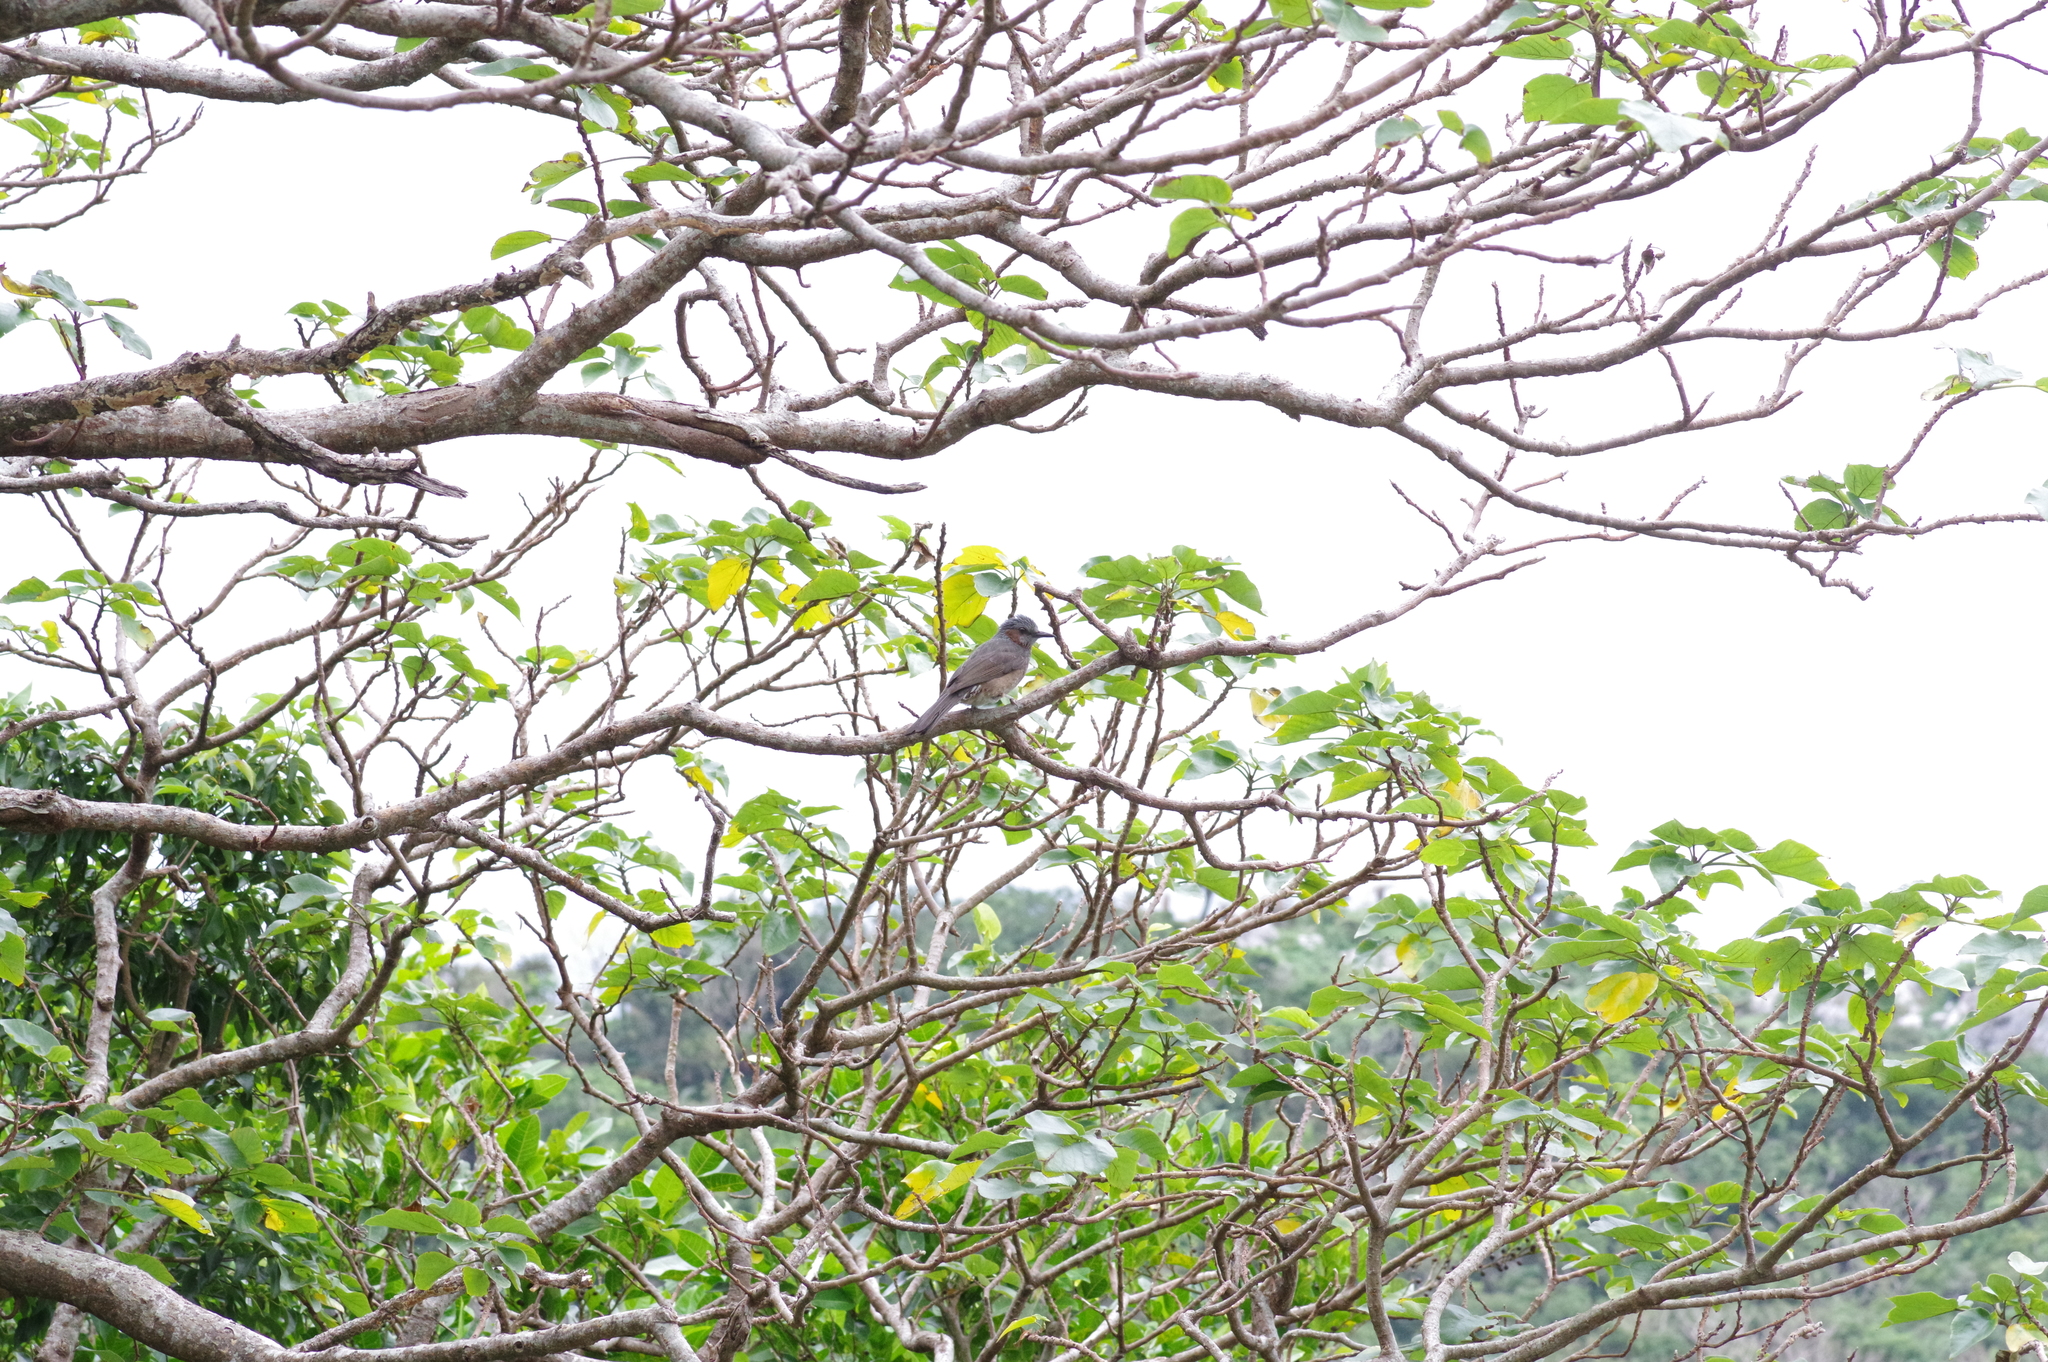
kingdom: Animalia
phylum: Chordata
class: Aves
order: Passeriformes
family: Pycnonotidae
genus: Hypsipetes
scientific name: Hypsipetes amaurotis
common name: Brown-eared bulbul
